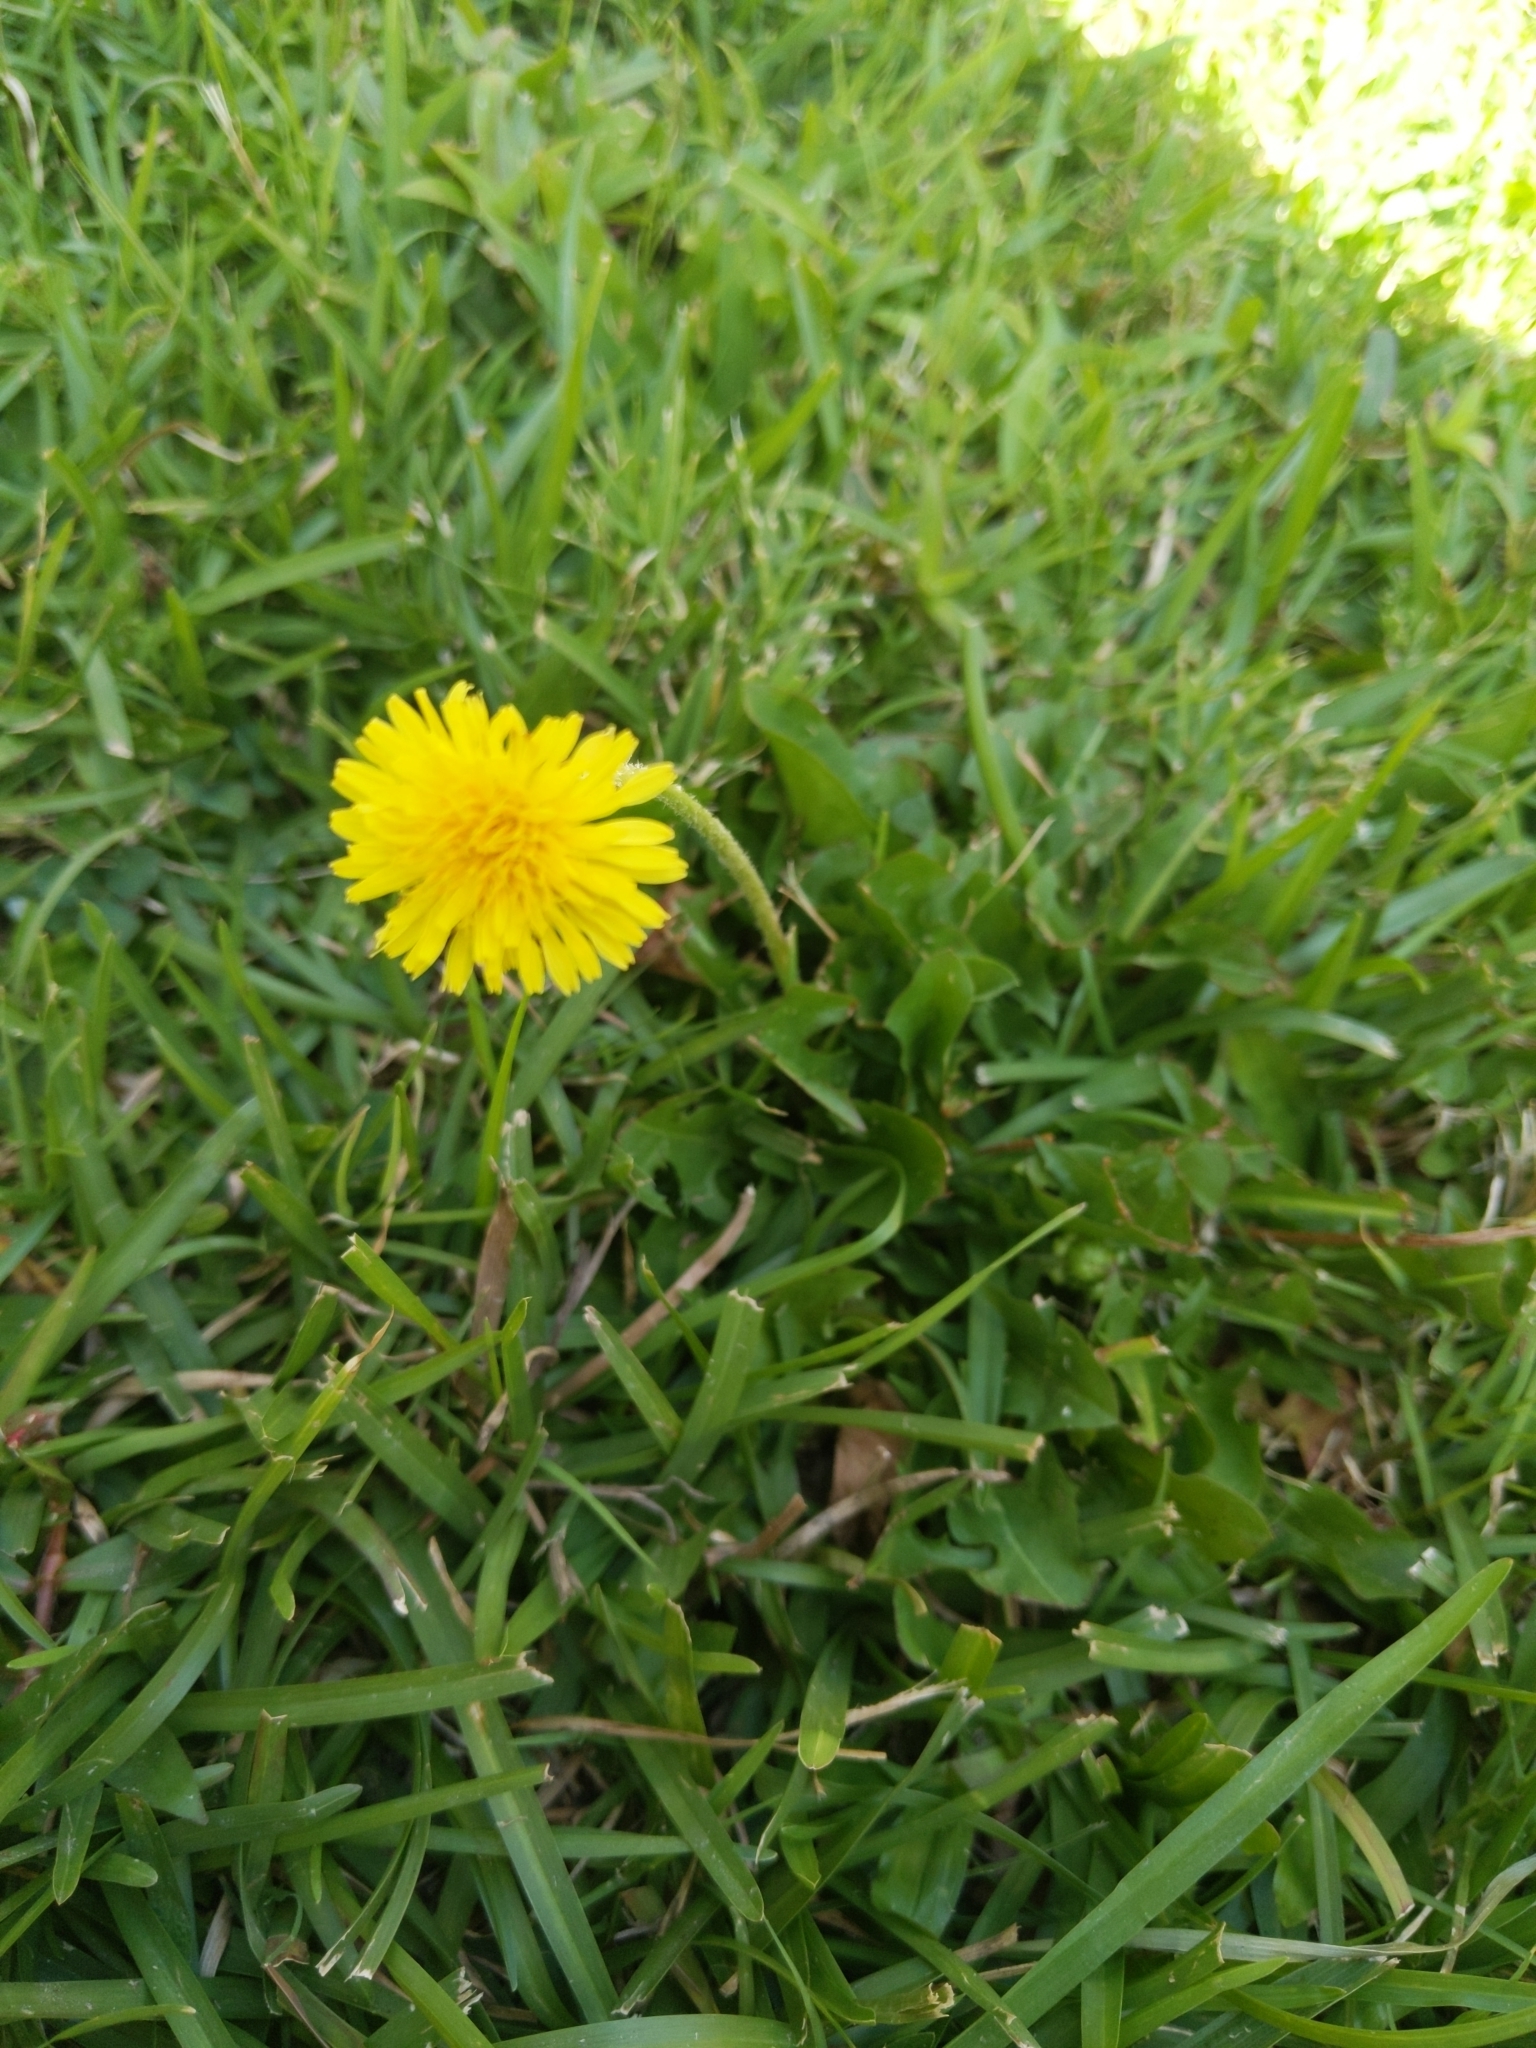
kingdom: Plantae
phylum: Tracheophyta
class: Magnoliopsida
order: Asterales
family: Asteraceae
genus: Taraxacum
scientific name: Taraxacum
